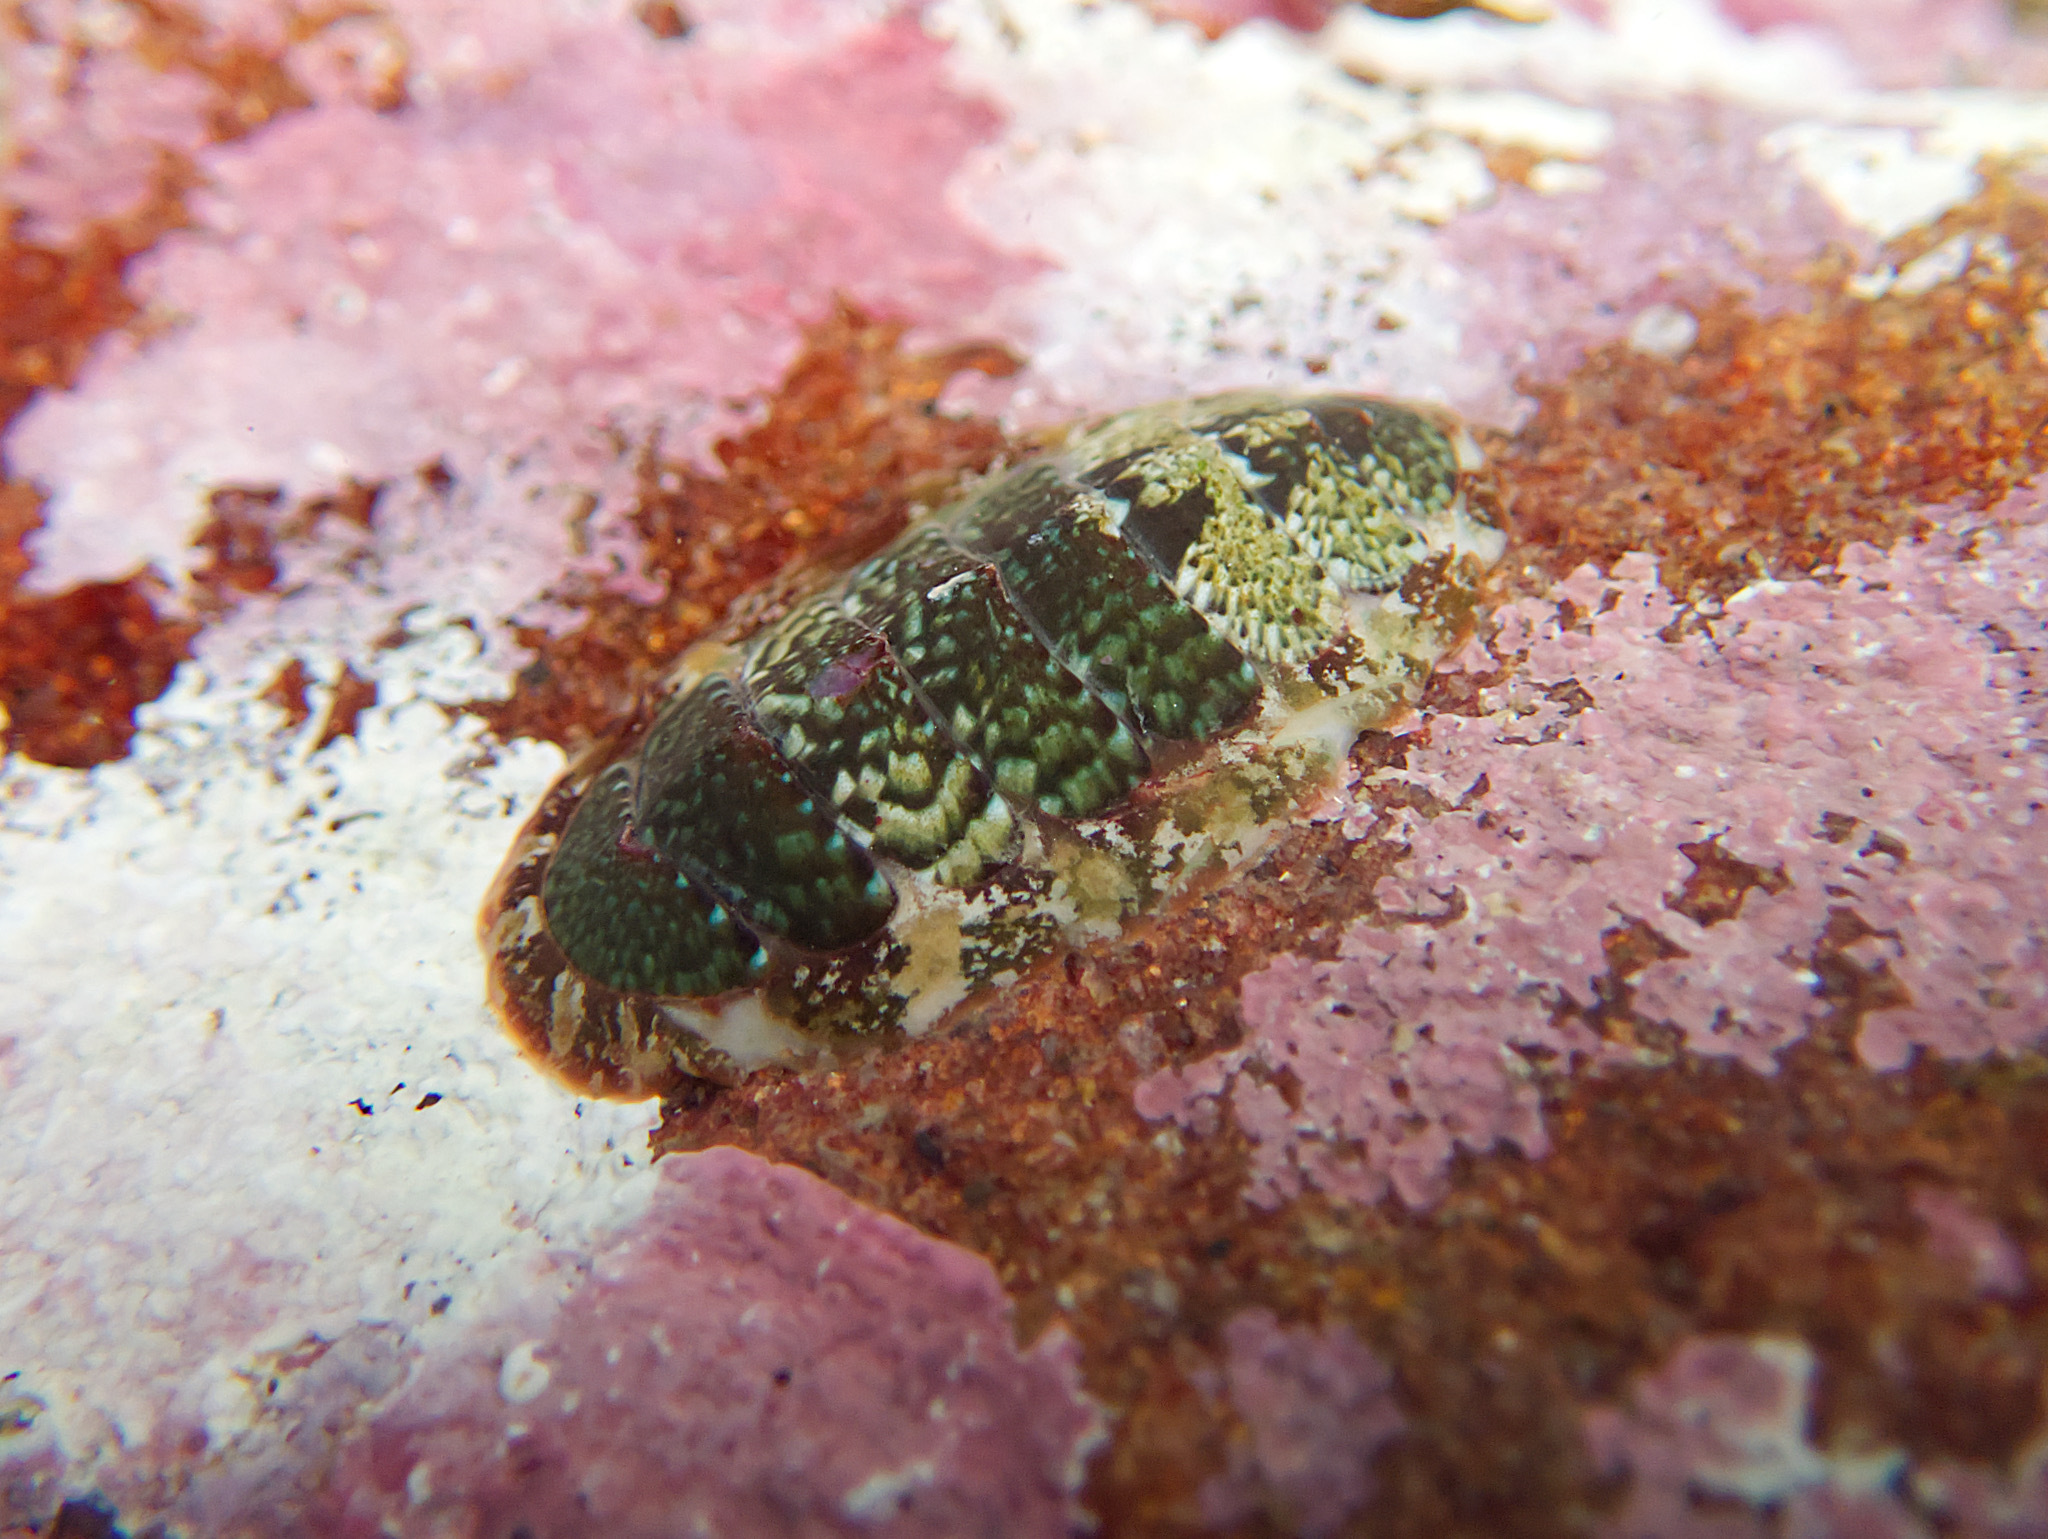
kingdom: Animalia
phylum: Mollusca
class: Polyplacophora
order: Chitonida
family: Mopaliidae
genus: Dendrochiton
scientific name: Dendrochiton flectens
